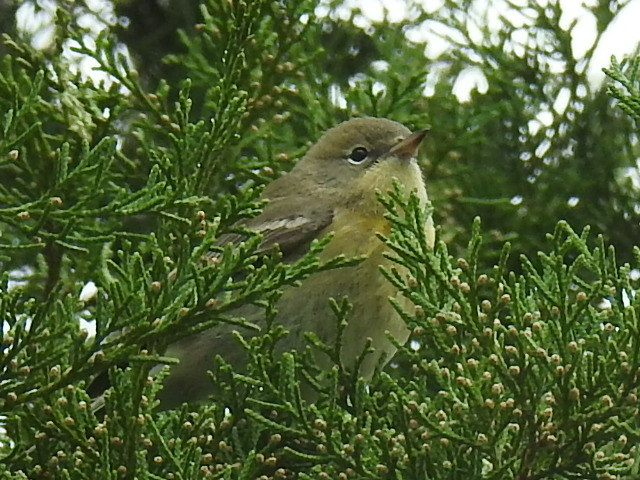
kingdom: Animalia
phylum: Chordata
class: Aves
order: Passeriformes
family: Parulidae
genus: Setophaga
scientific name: Setophaga pinus
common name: Pine warbler
